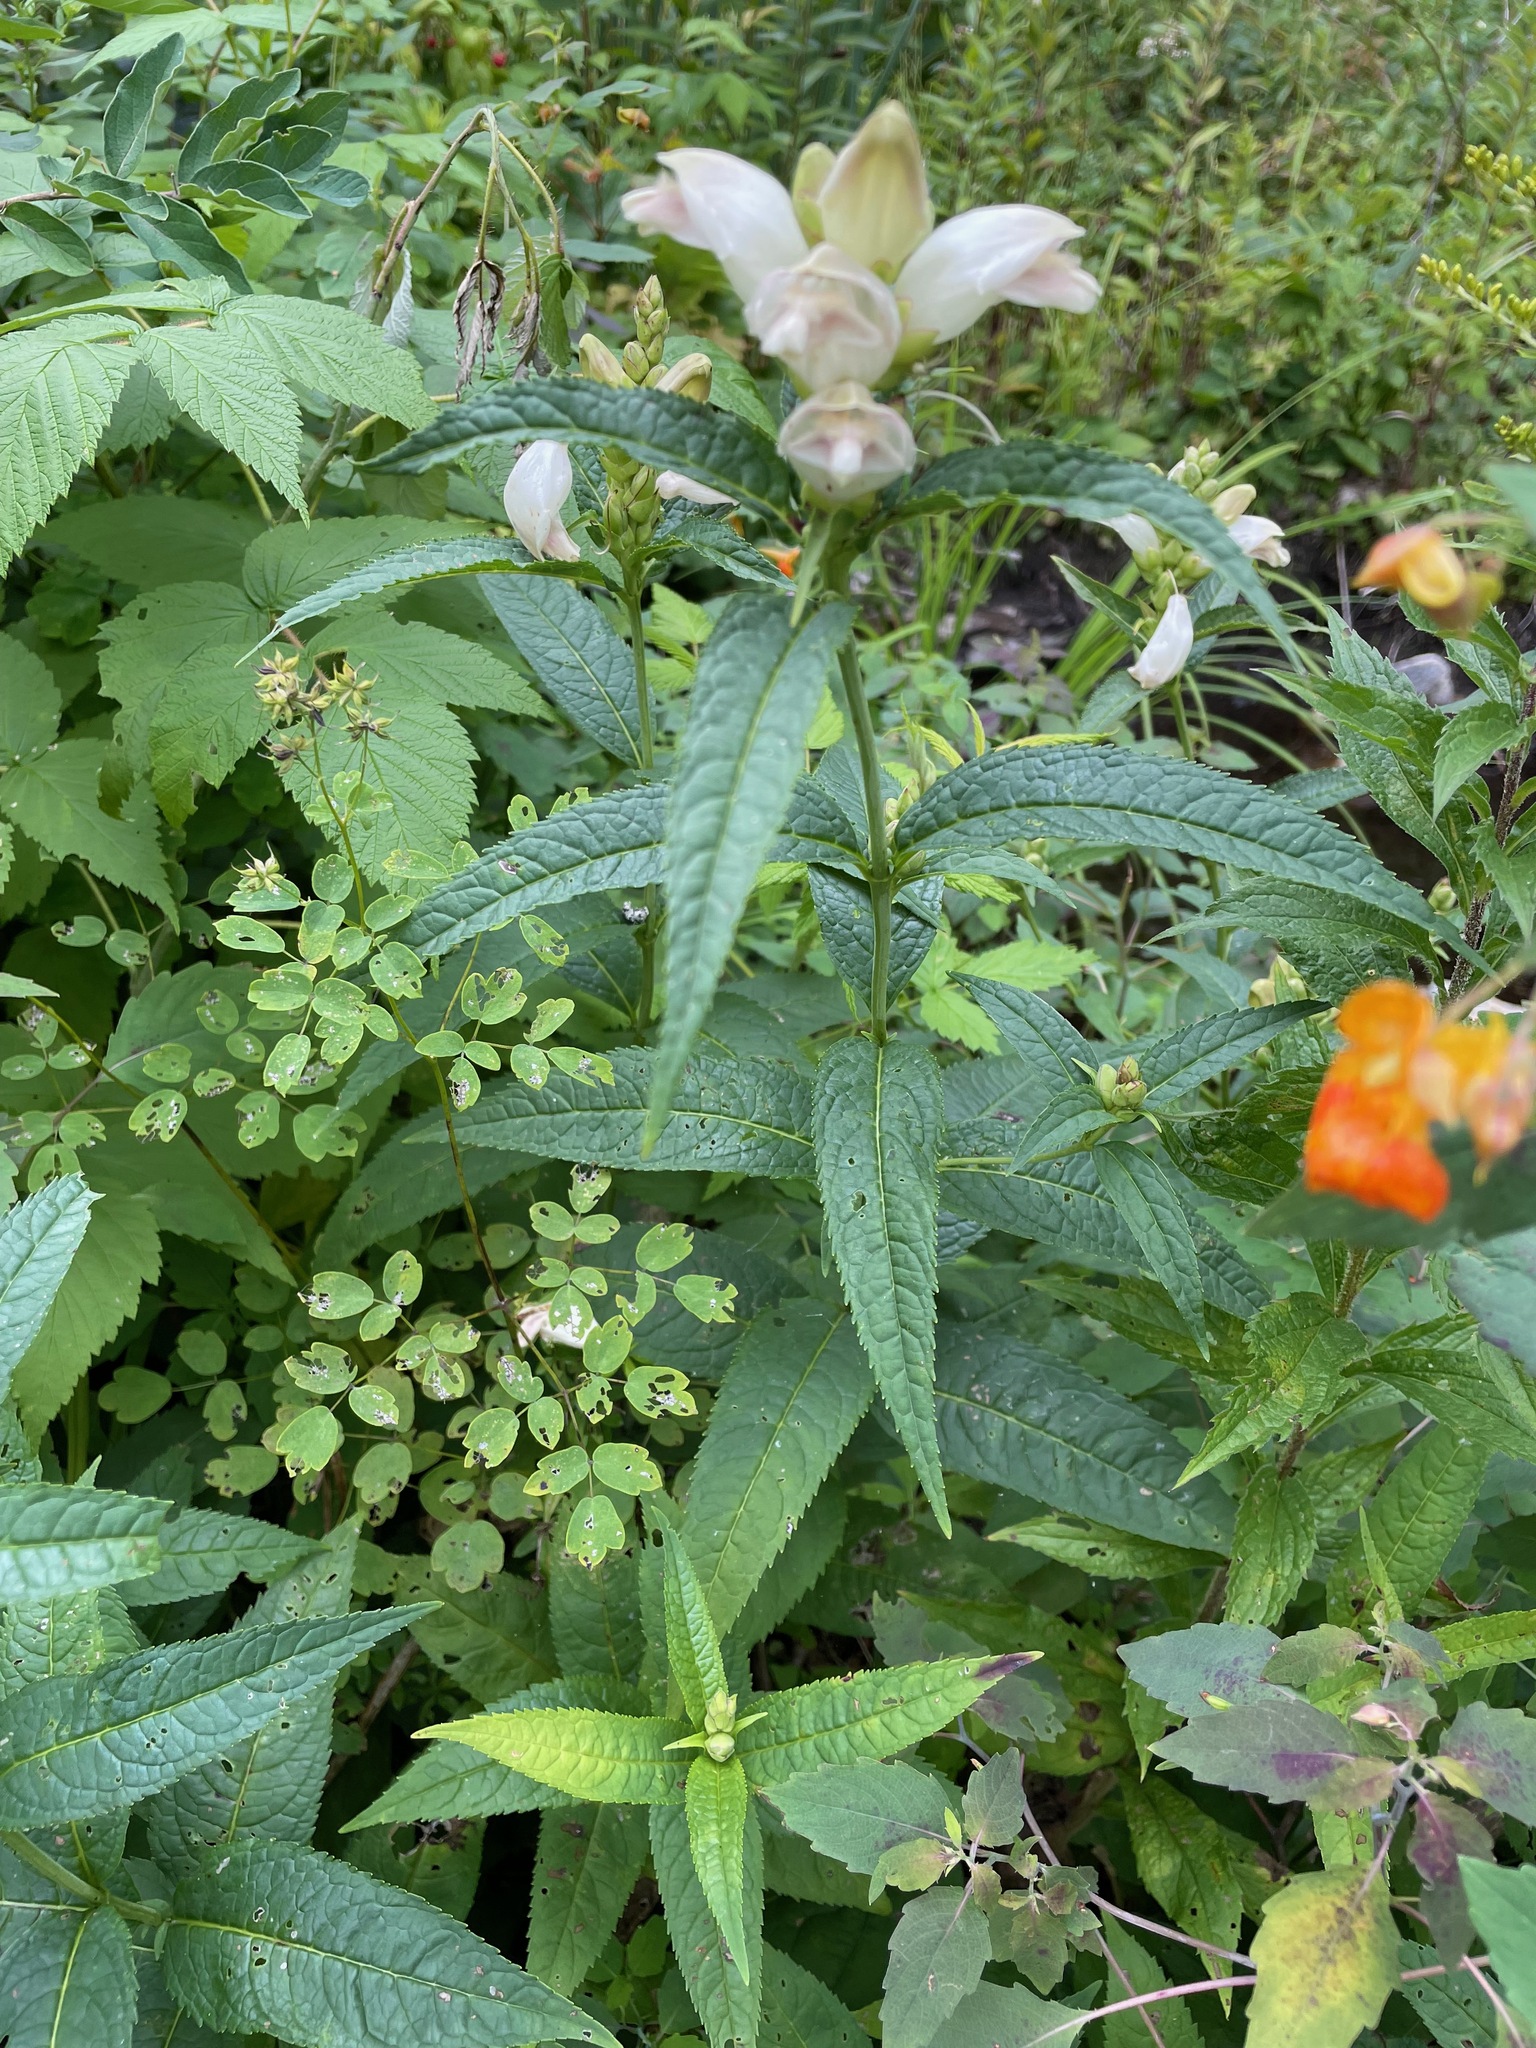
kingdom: Plantae
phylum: Tracheophyta
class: Magnoliopsida
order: Lamiales
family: Plantaginaceae
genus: Chelone
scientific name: Chelone glabra
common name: Snakehead
